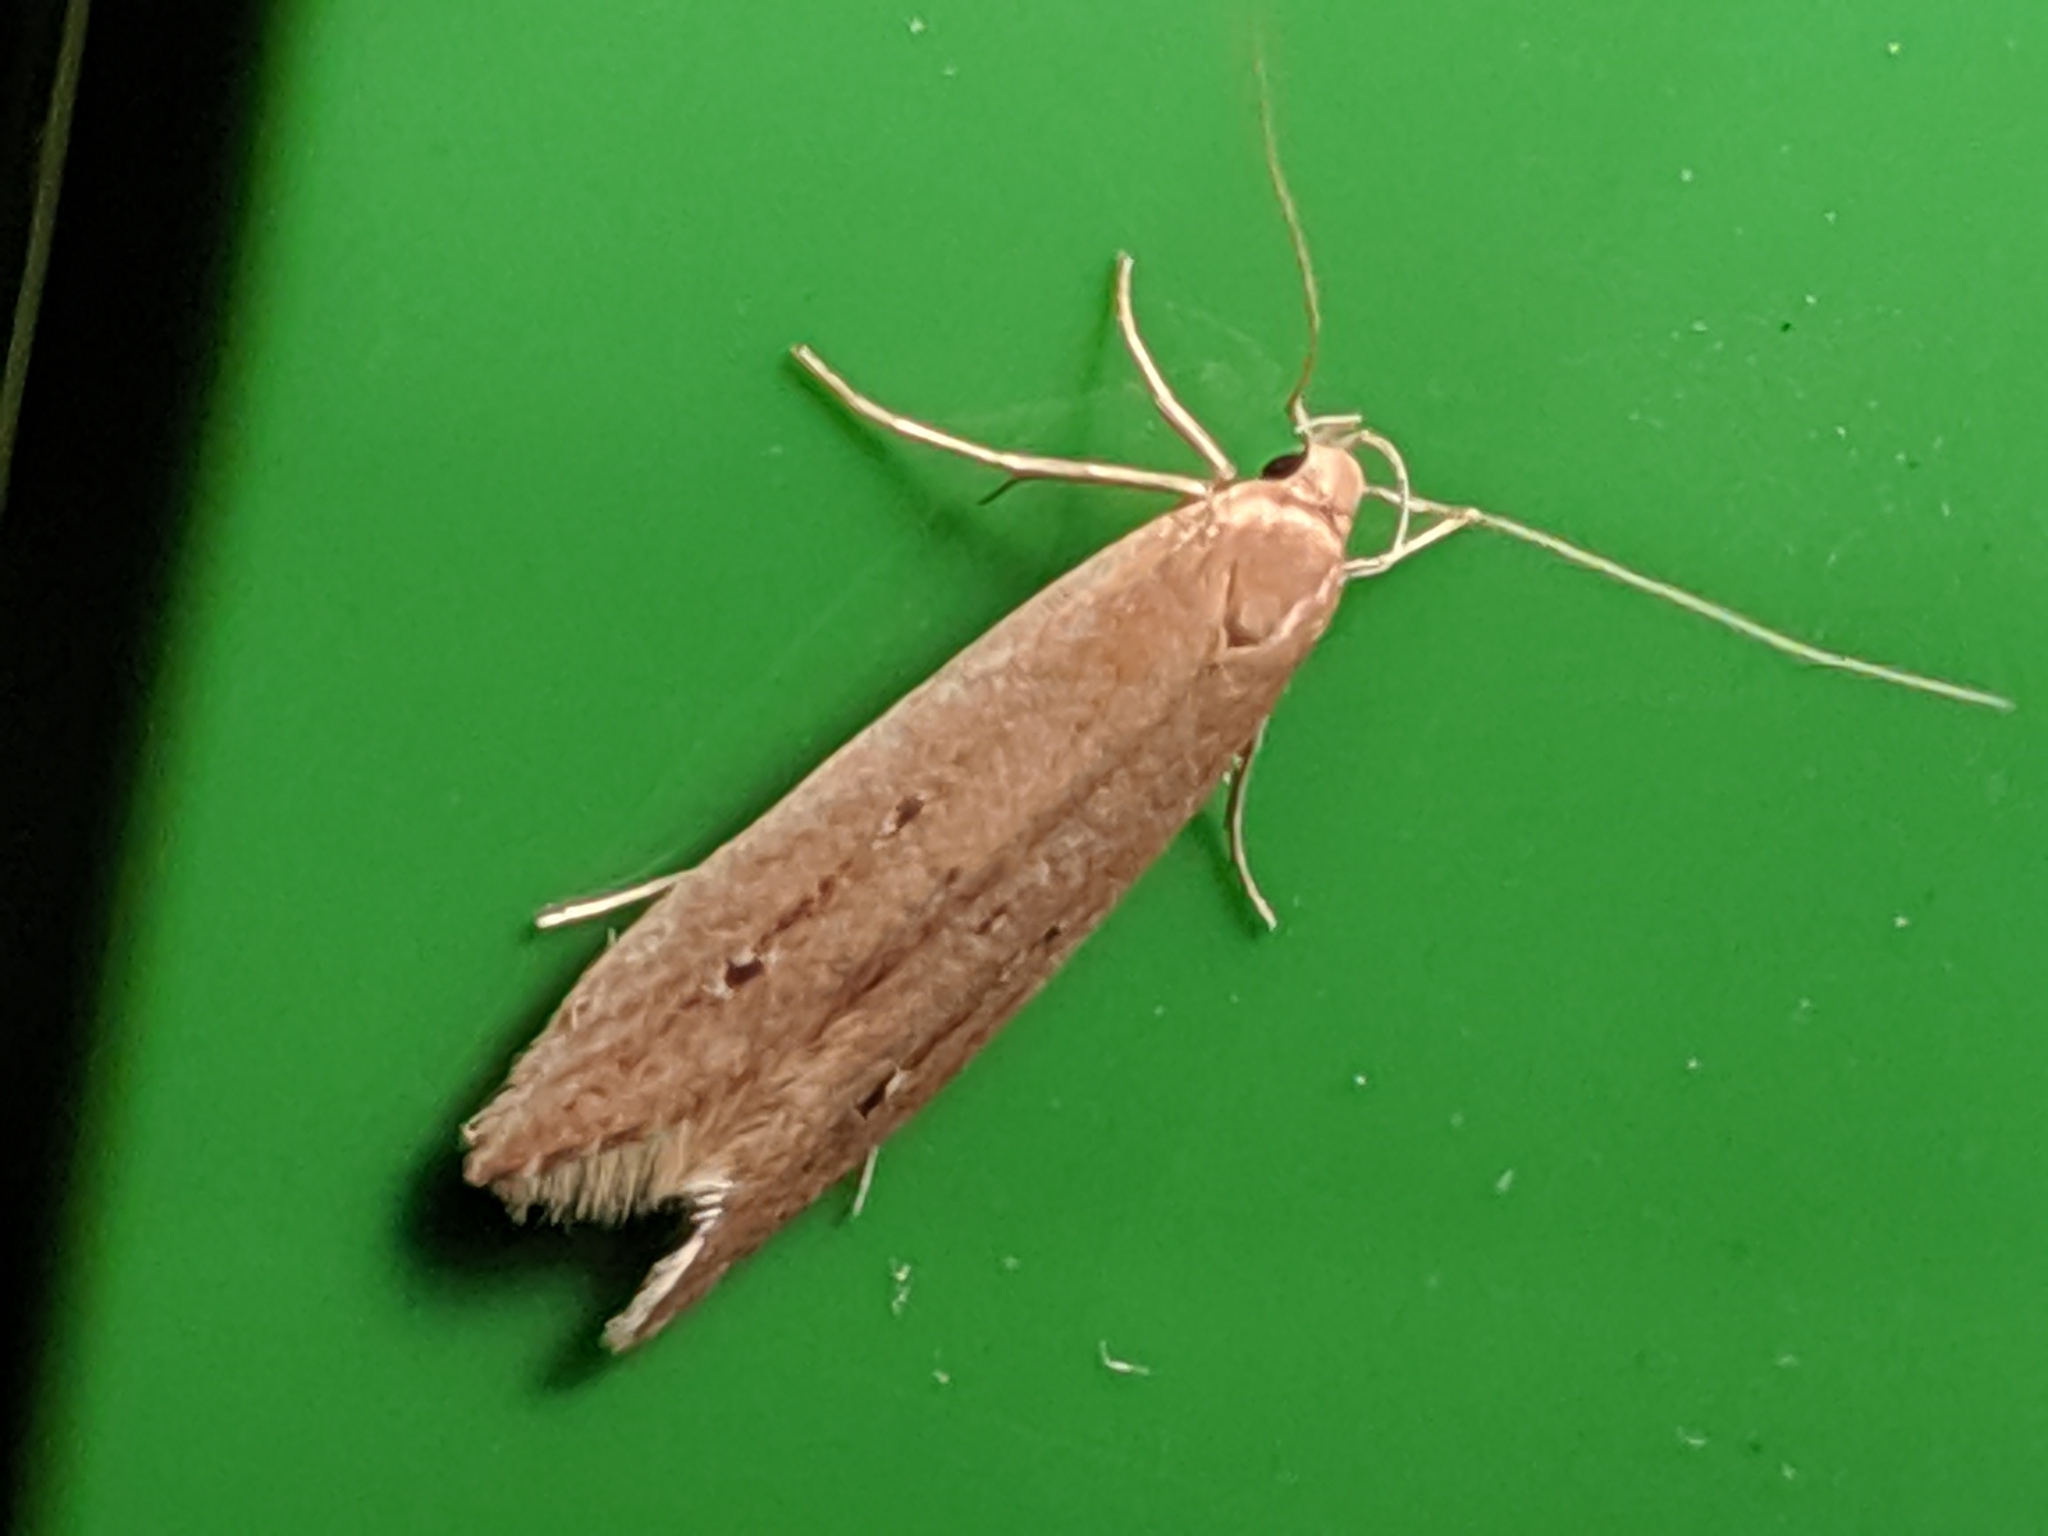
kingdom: Animalia
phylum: Arthropoda
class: Insecta
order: Lepidoptera
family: Cosmopterigidae
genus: Limnaecia
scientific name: Limnaecia phragmitella
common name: Bulrush cosmet
